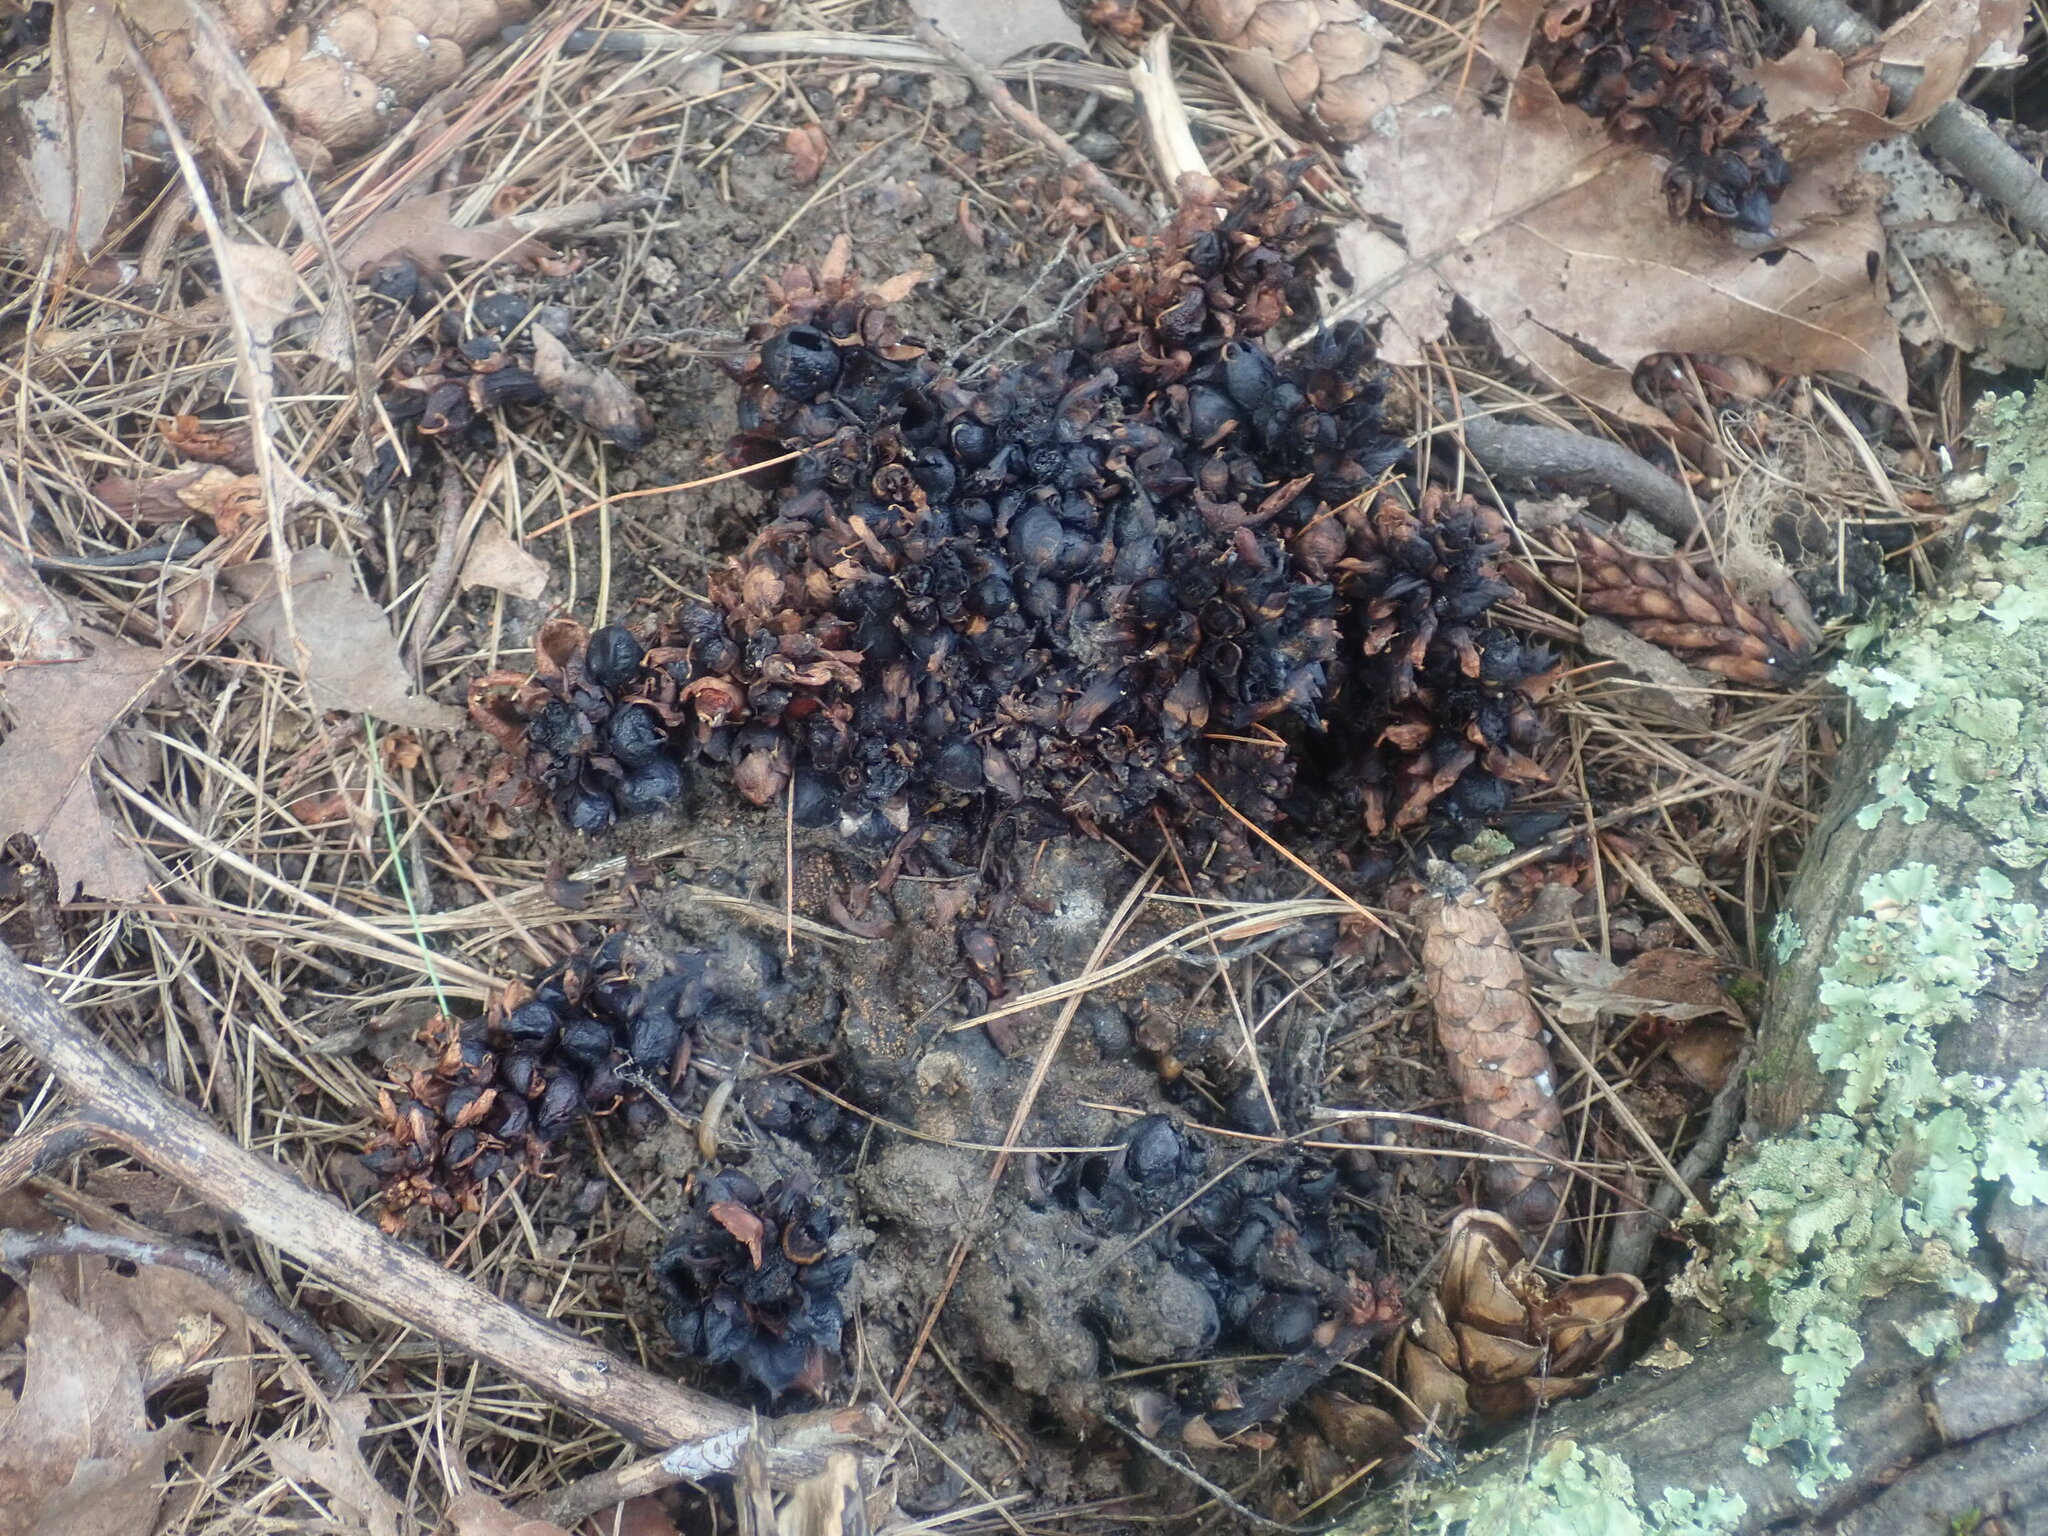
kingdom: Plantae
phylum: Tracheophyta
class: Magnoliopsida
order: Lamiales
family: Orobanchaceae
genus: Conopholis
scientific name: Conopholis americana
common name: American cancer-root
